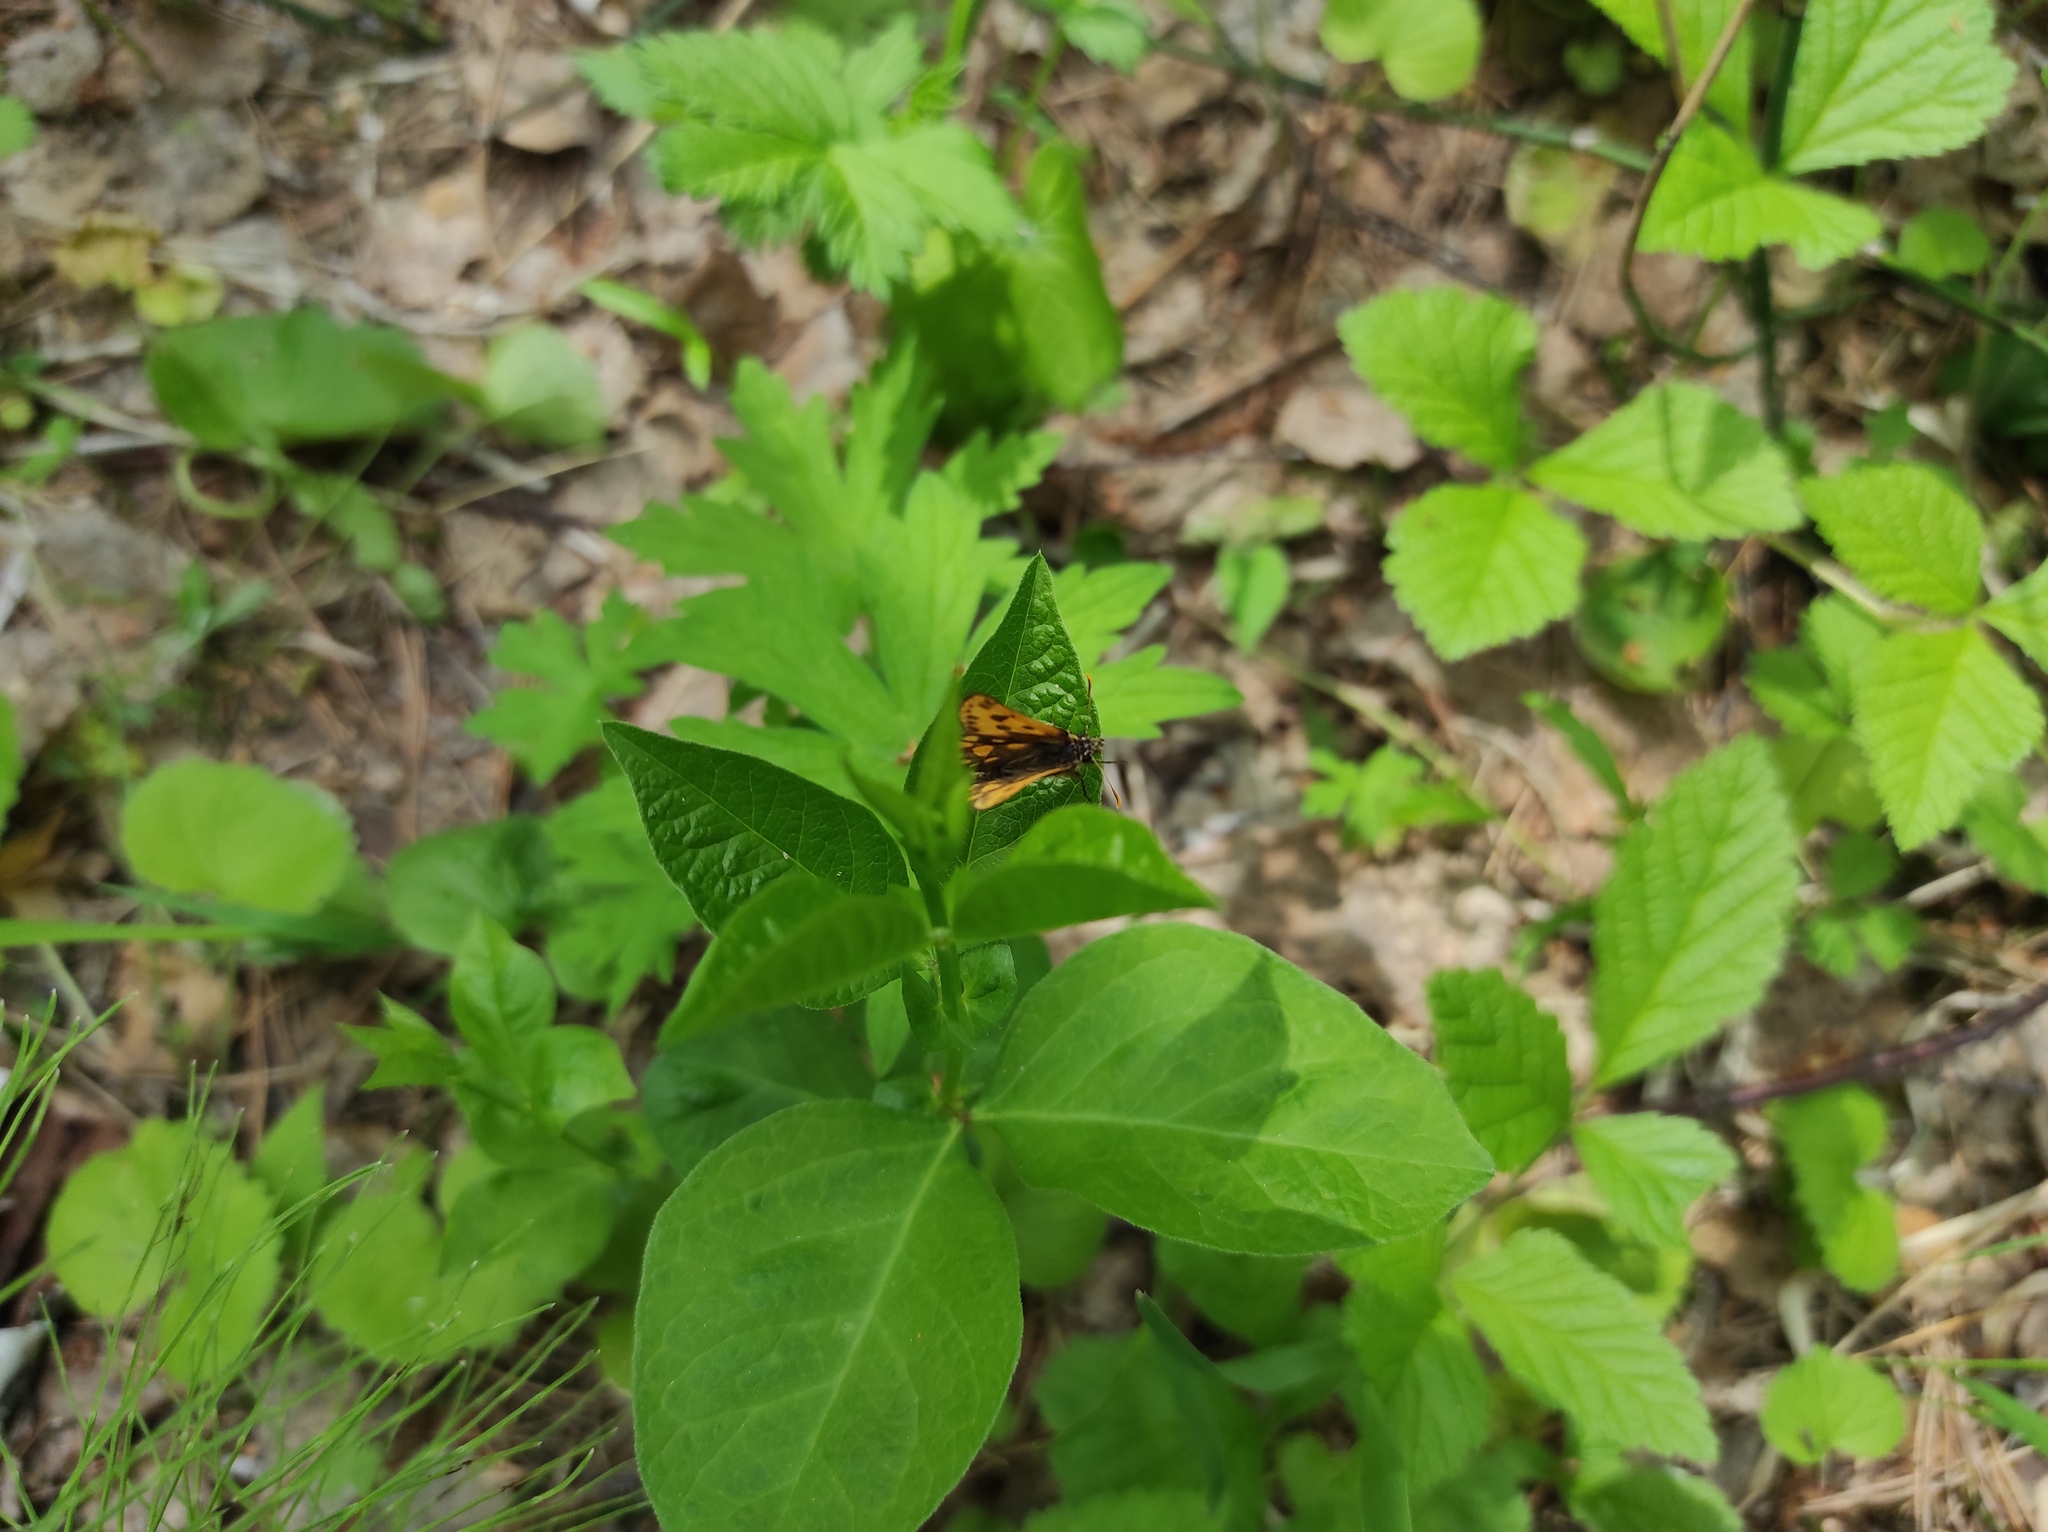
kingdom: Plantae
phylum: Tracheophyta
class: Magnoliopsida
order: Fabales
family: Fabaceae
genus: Vicia
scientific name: Vicia unijuga
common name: Two-leaf vetch
